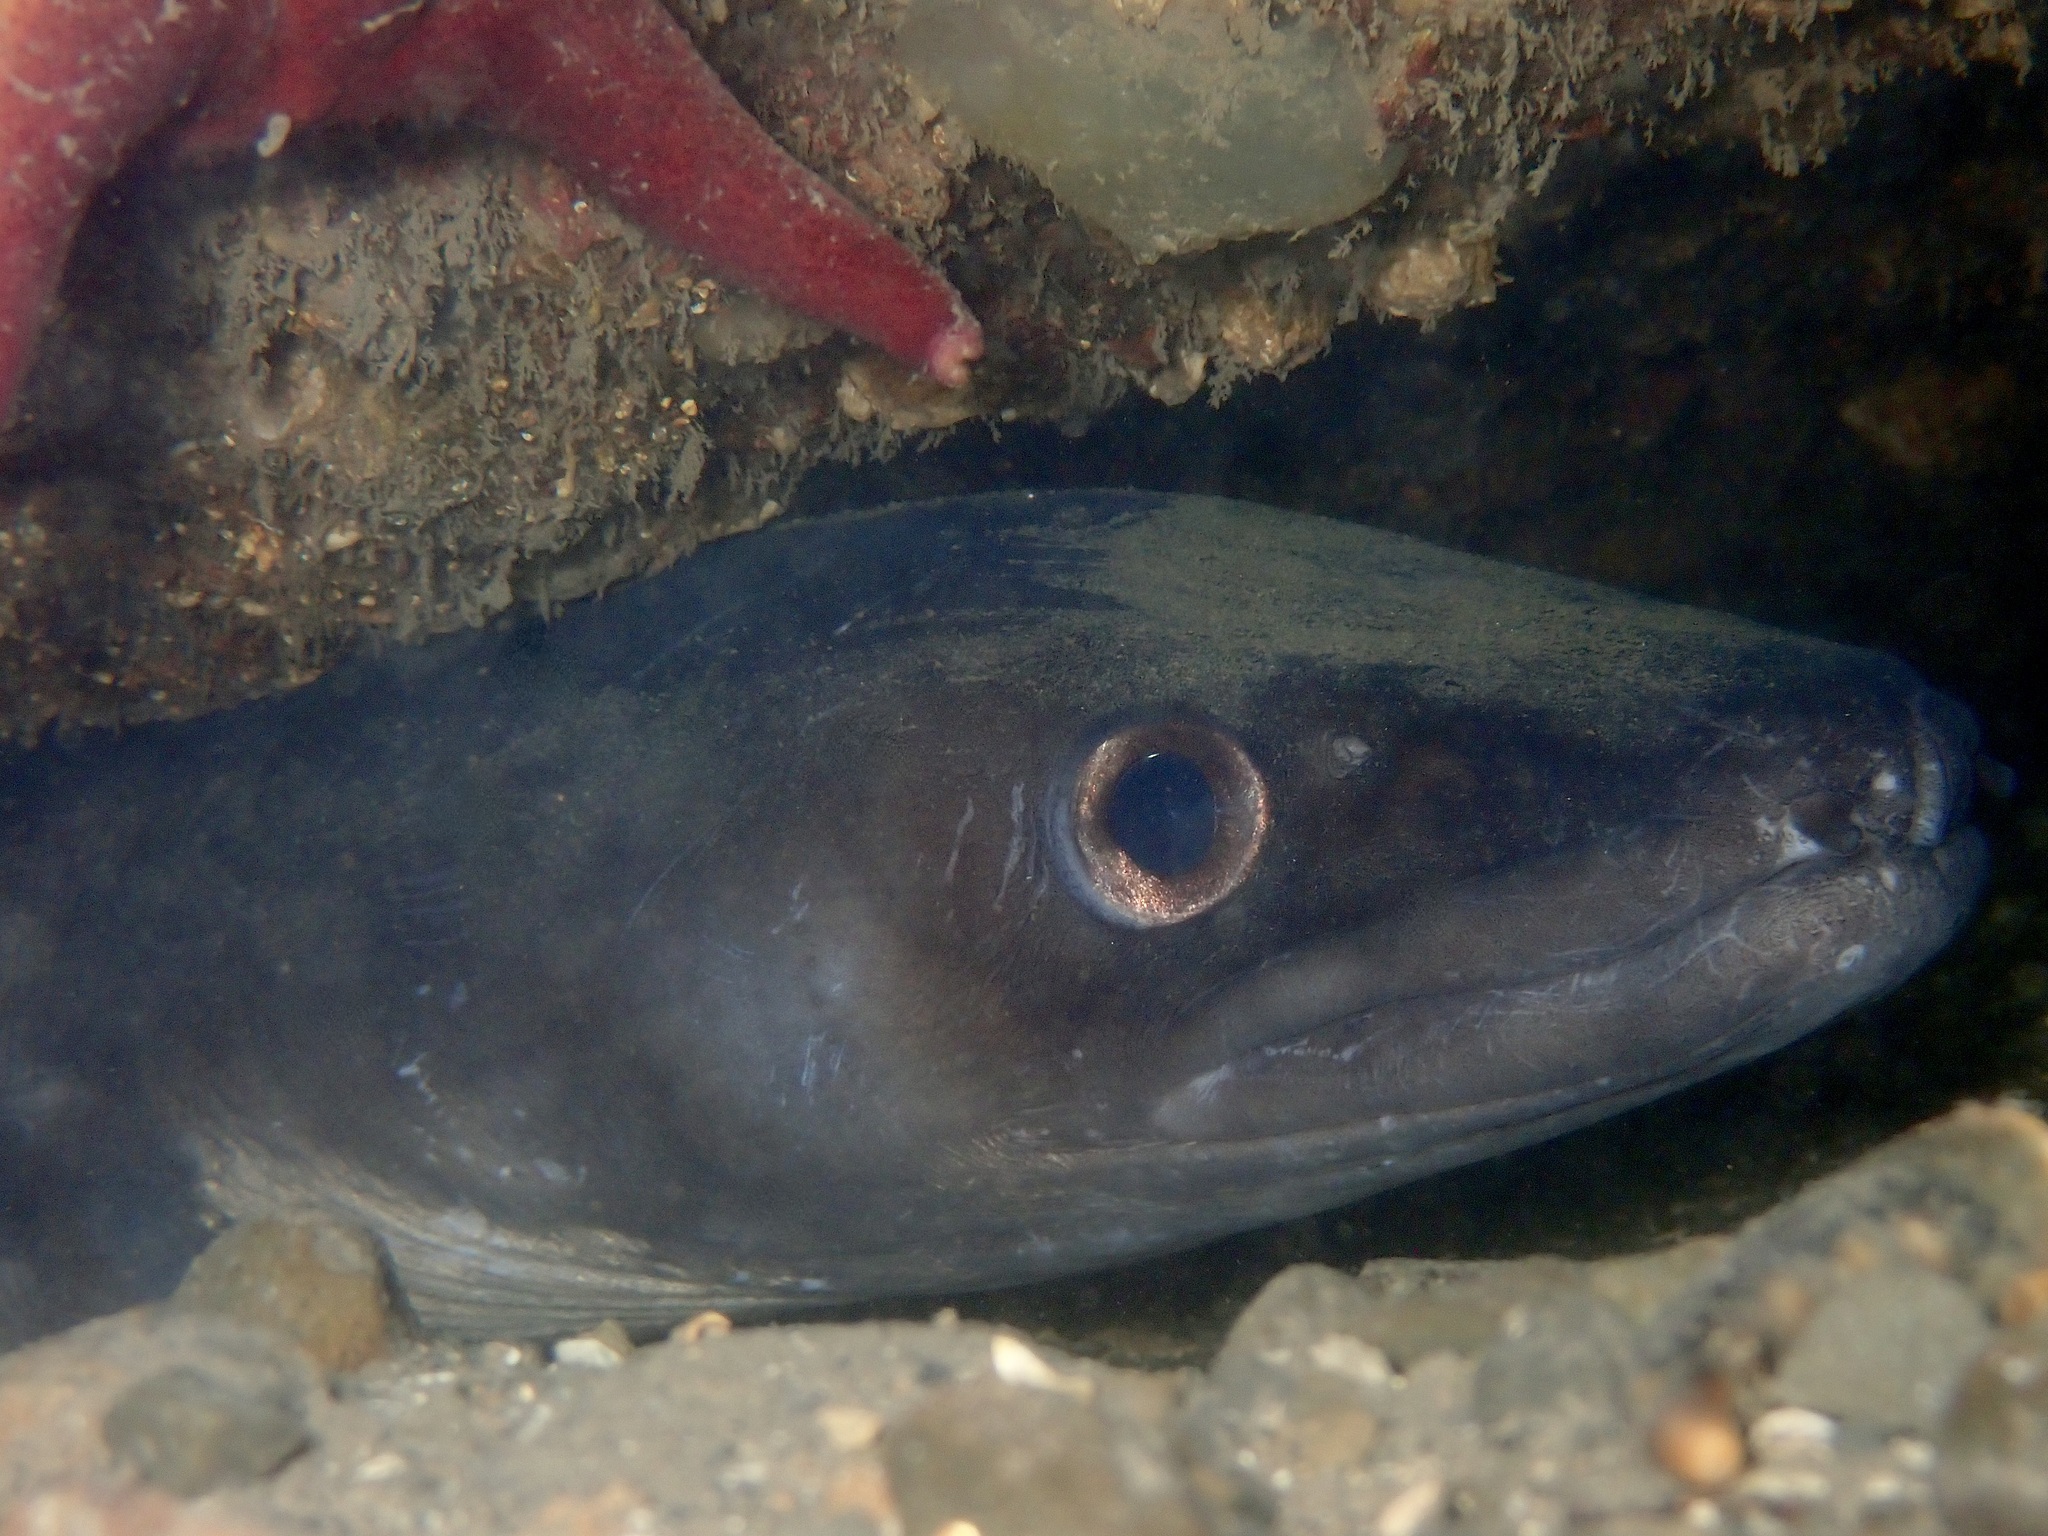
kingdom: Animalia
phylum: Chordata
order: Anguilliformes
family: Congridae
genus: Conger
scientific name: Conger conger
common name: Conger eel
